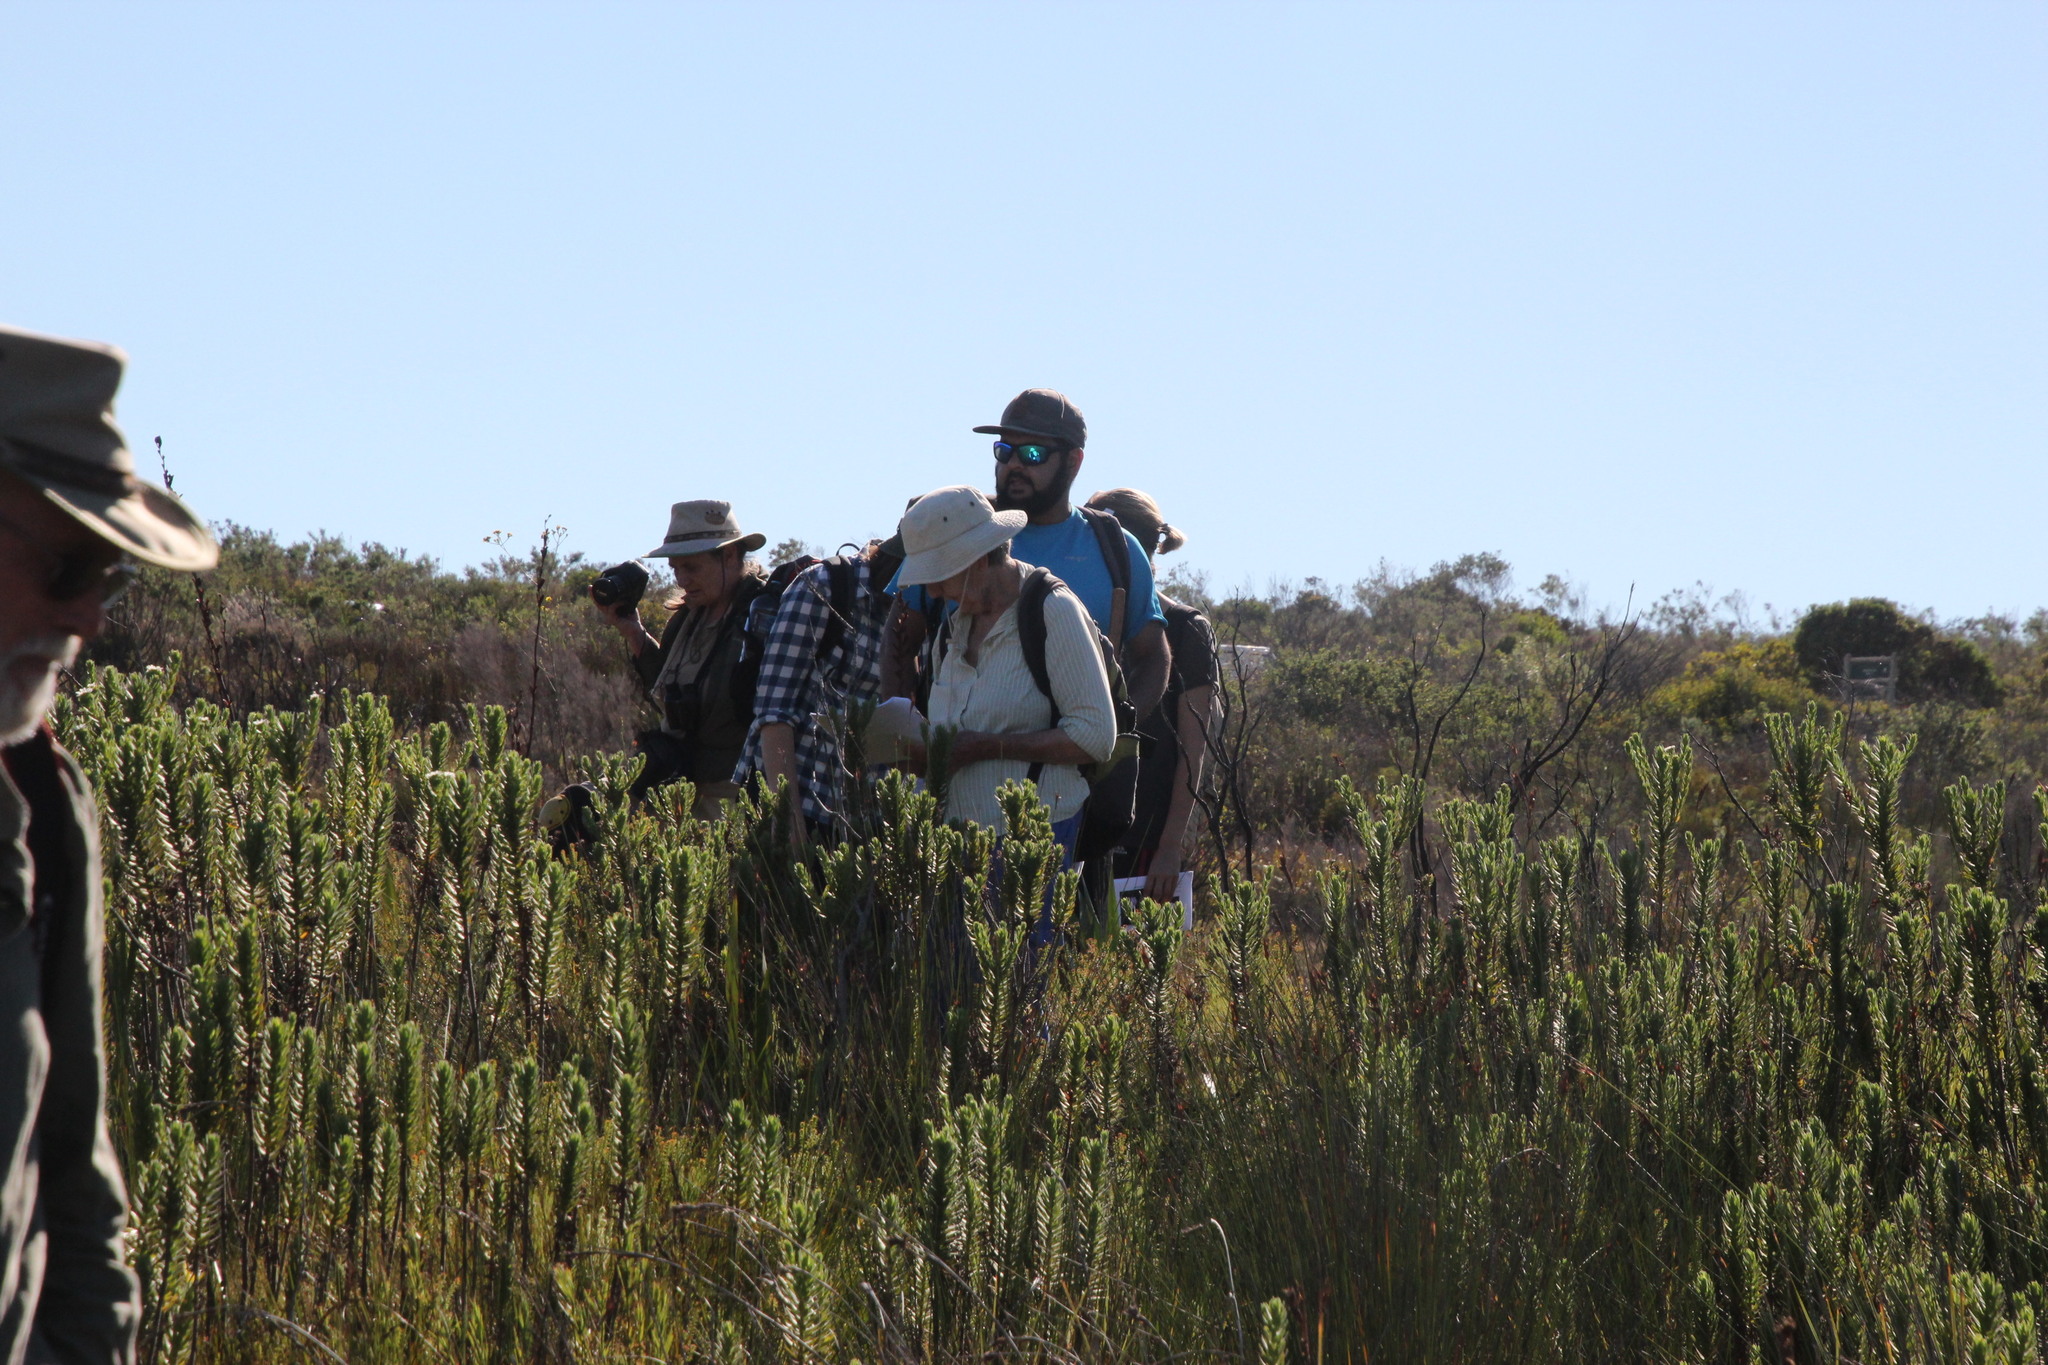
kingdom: Plantae
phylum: Tracheophyta
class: Magnoliopsida
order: Asterales
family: Asteraceae
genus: Osmitopsis
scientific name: Osmitopsis asteriscoides
